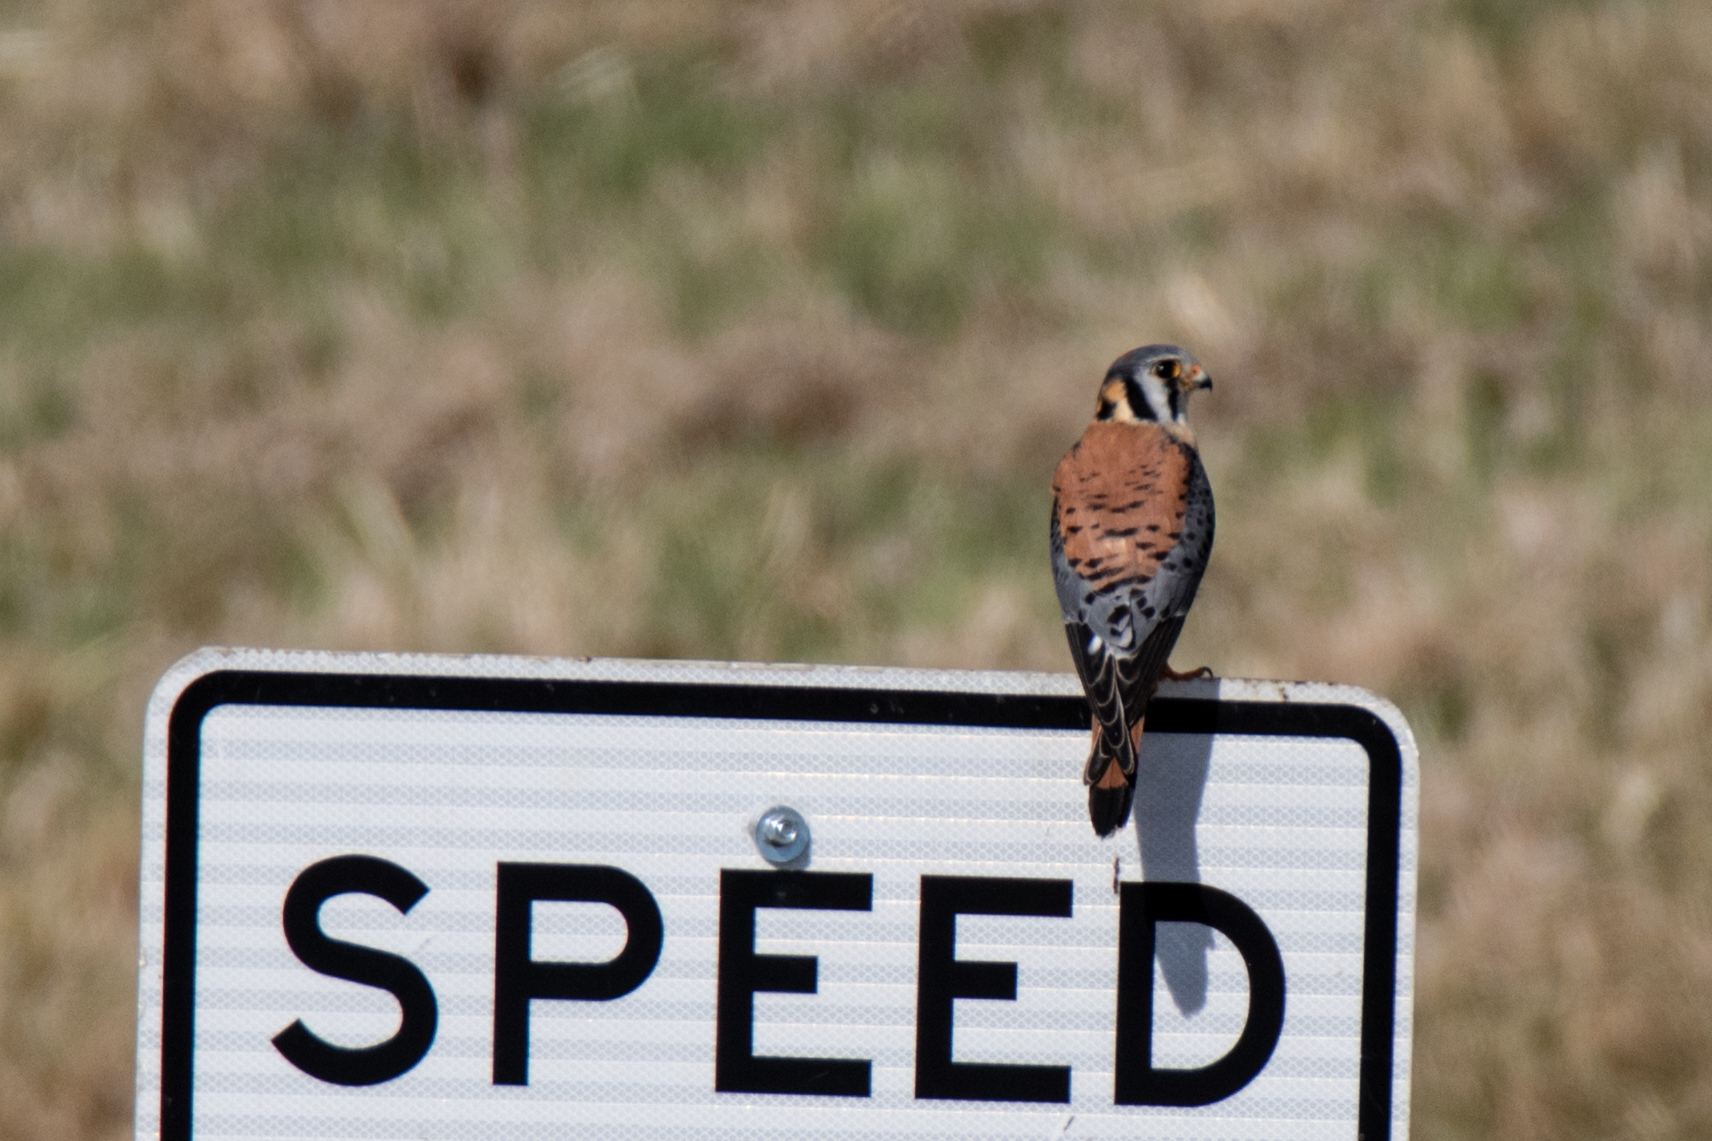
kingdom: Animalia
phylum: Chordata
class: Aves
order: Falconiformes
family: Falconidae
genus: Falco
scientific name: Falco sparverius
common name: American kestrel
